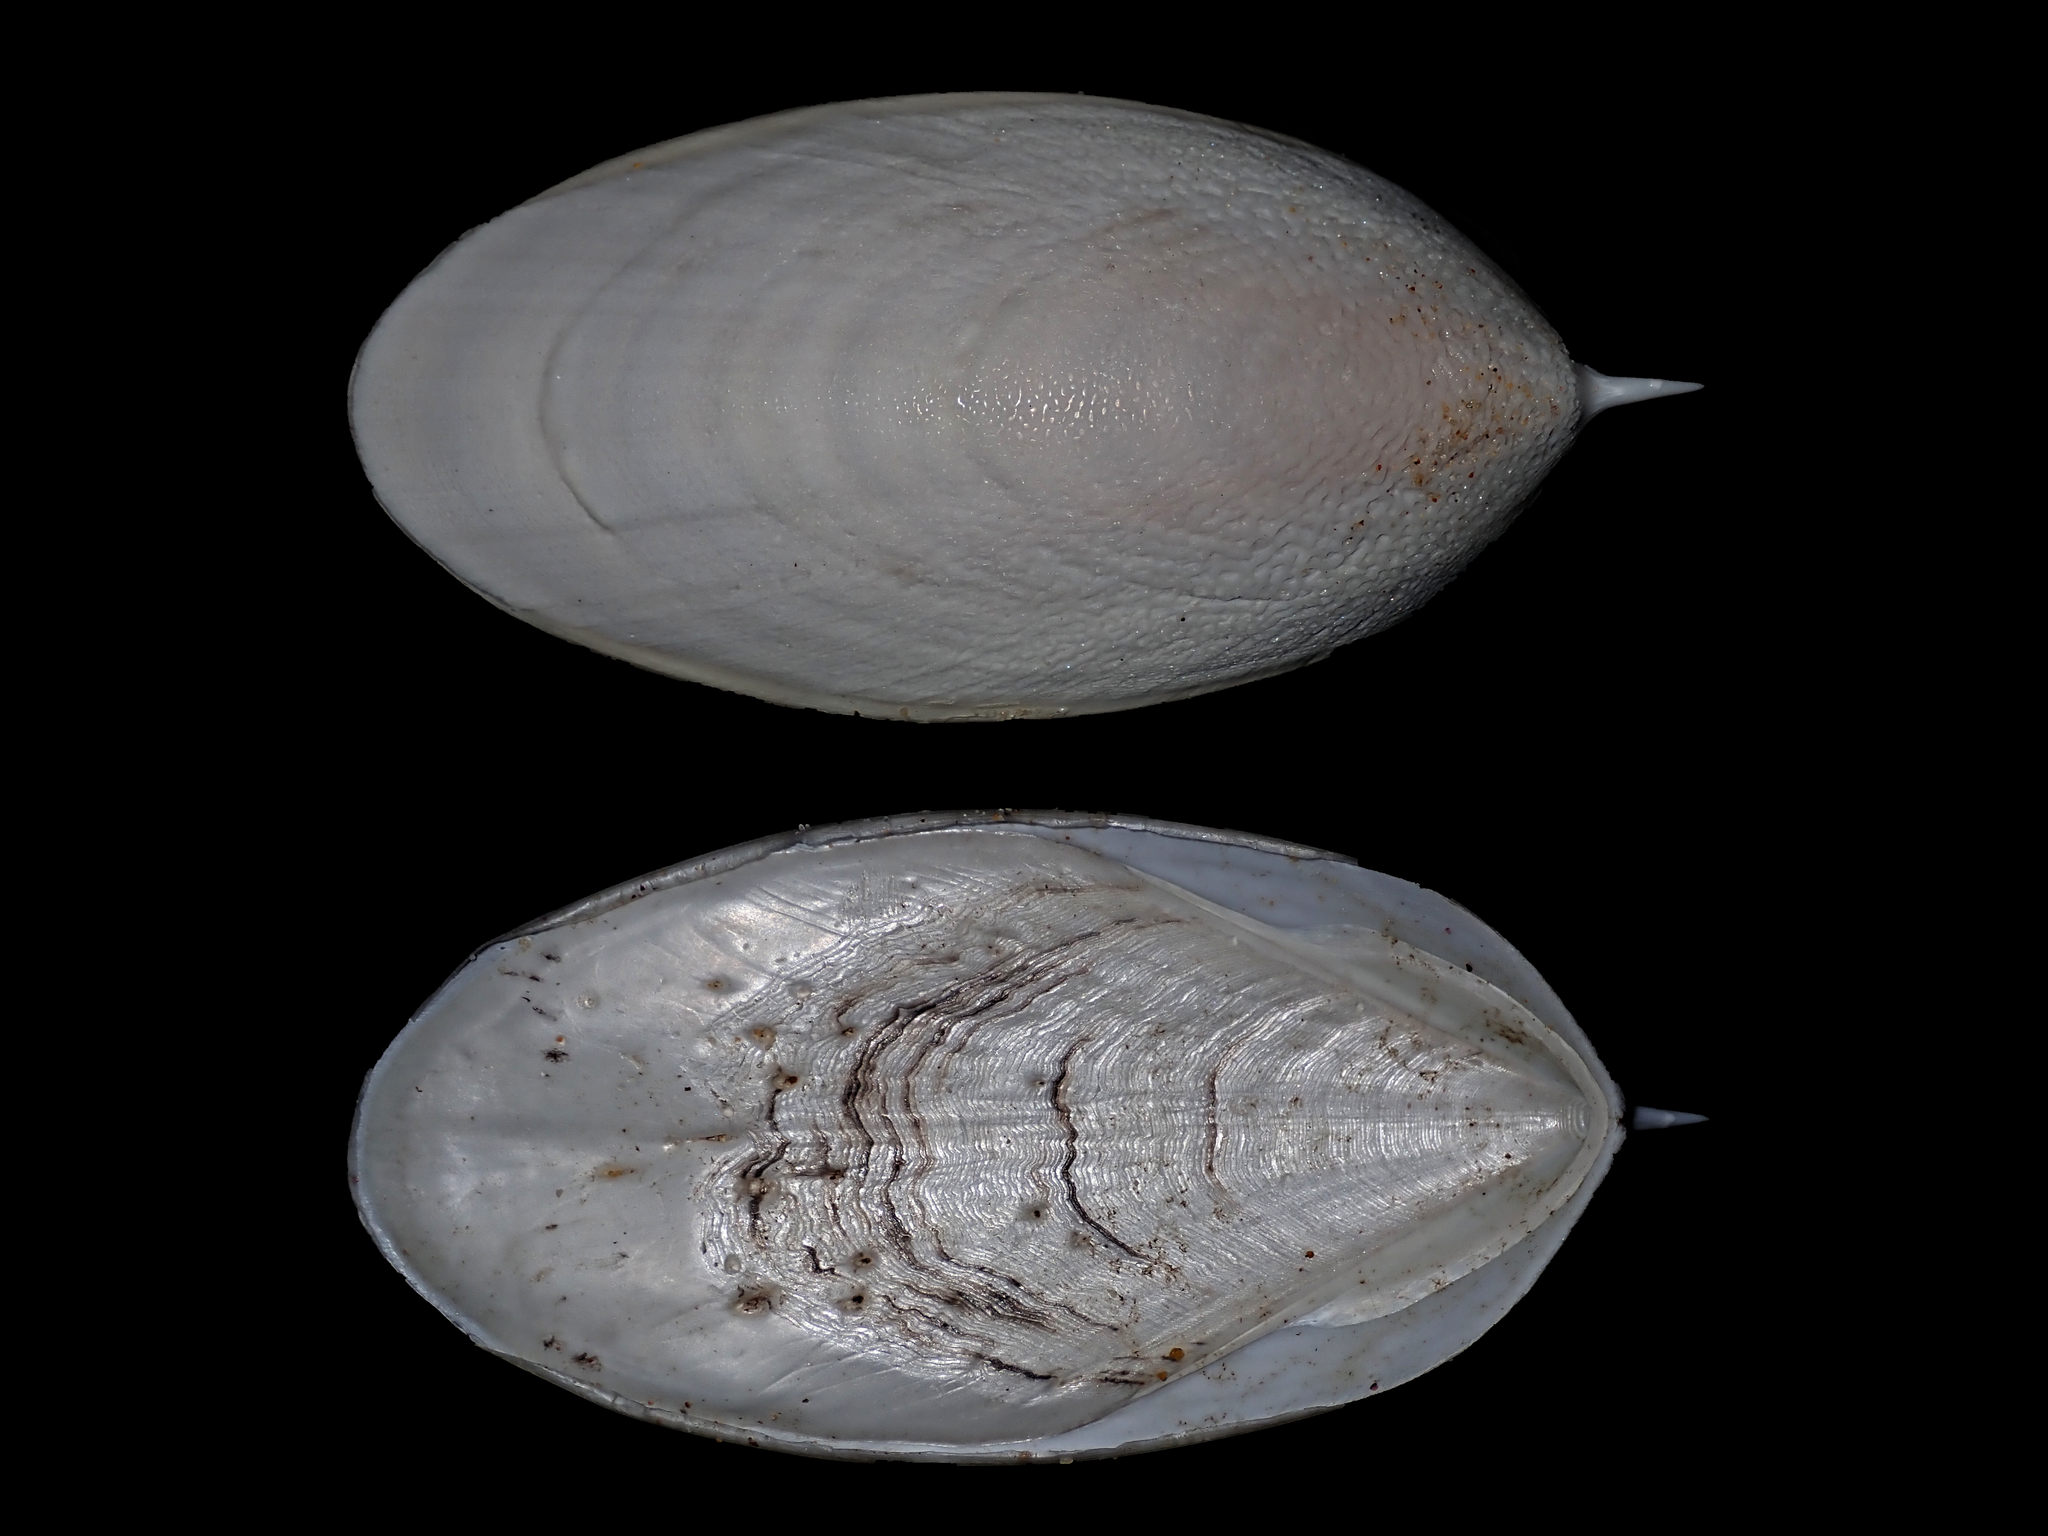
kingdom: Animalia
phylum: Mollusca
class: Cephalopoda
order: Sepiida
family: Sepiidae
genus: Ascarosepion
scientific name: Ascarosepion mestus
